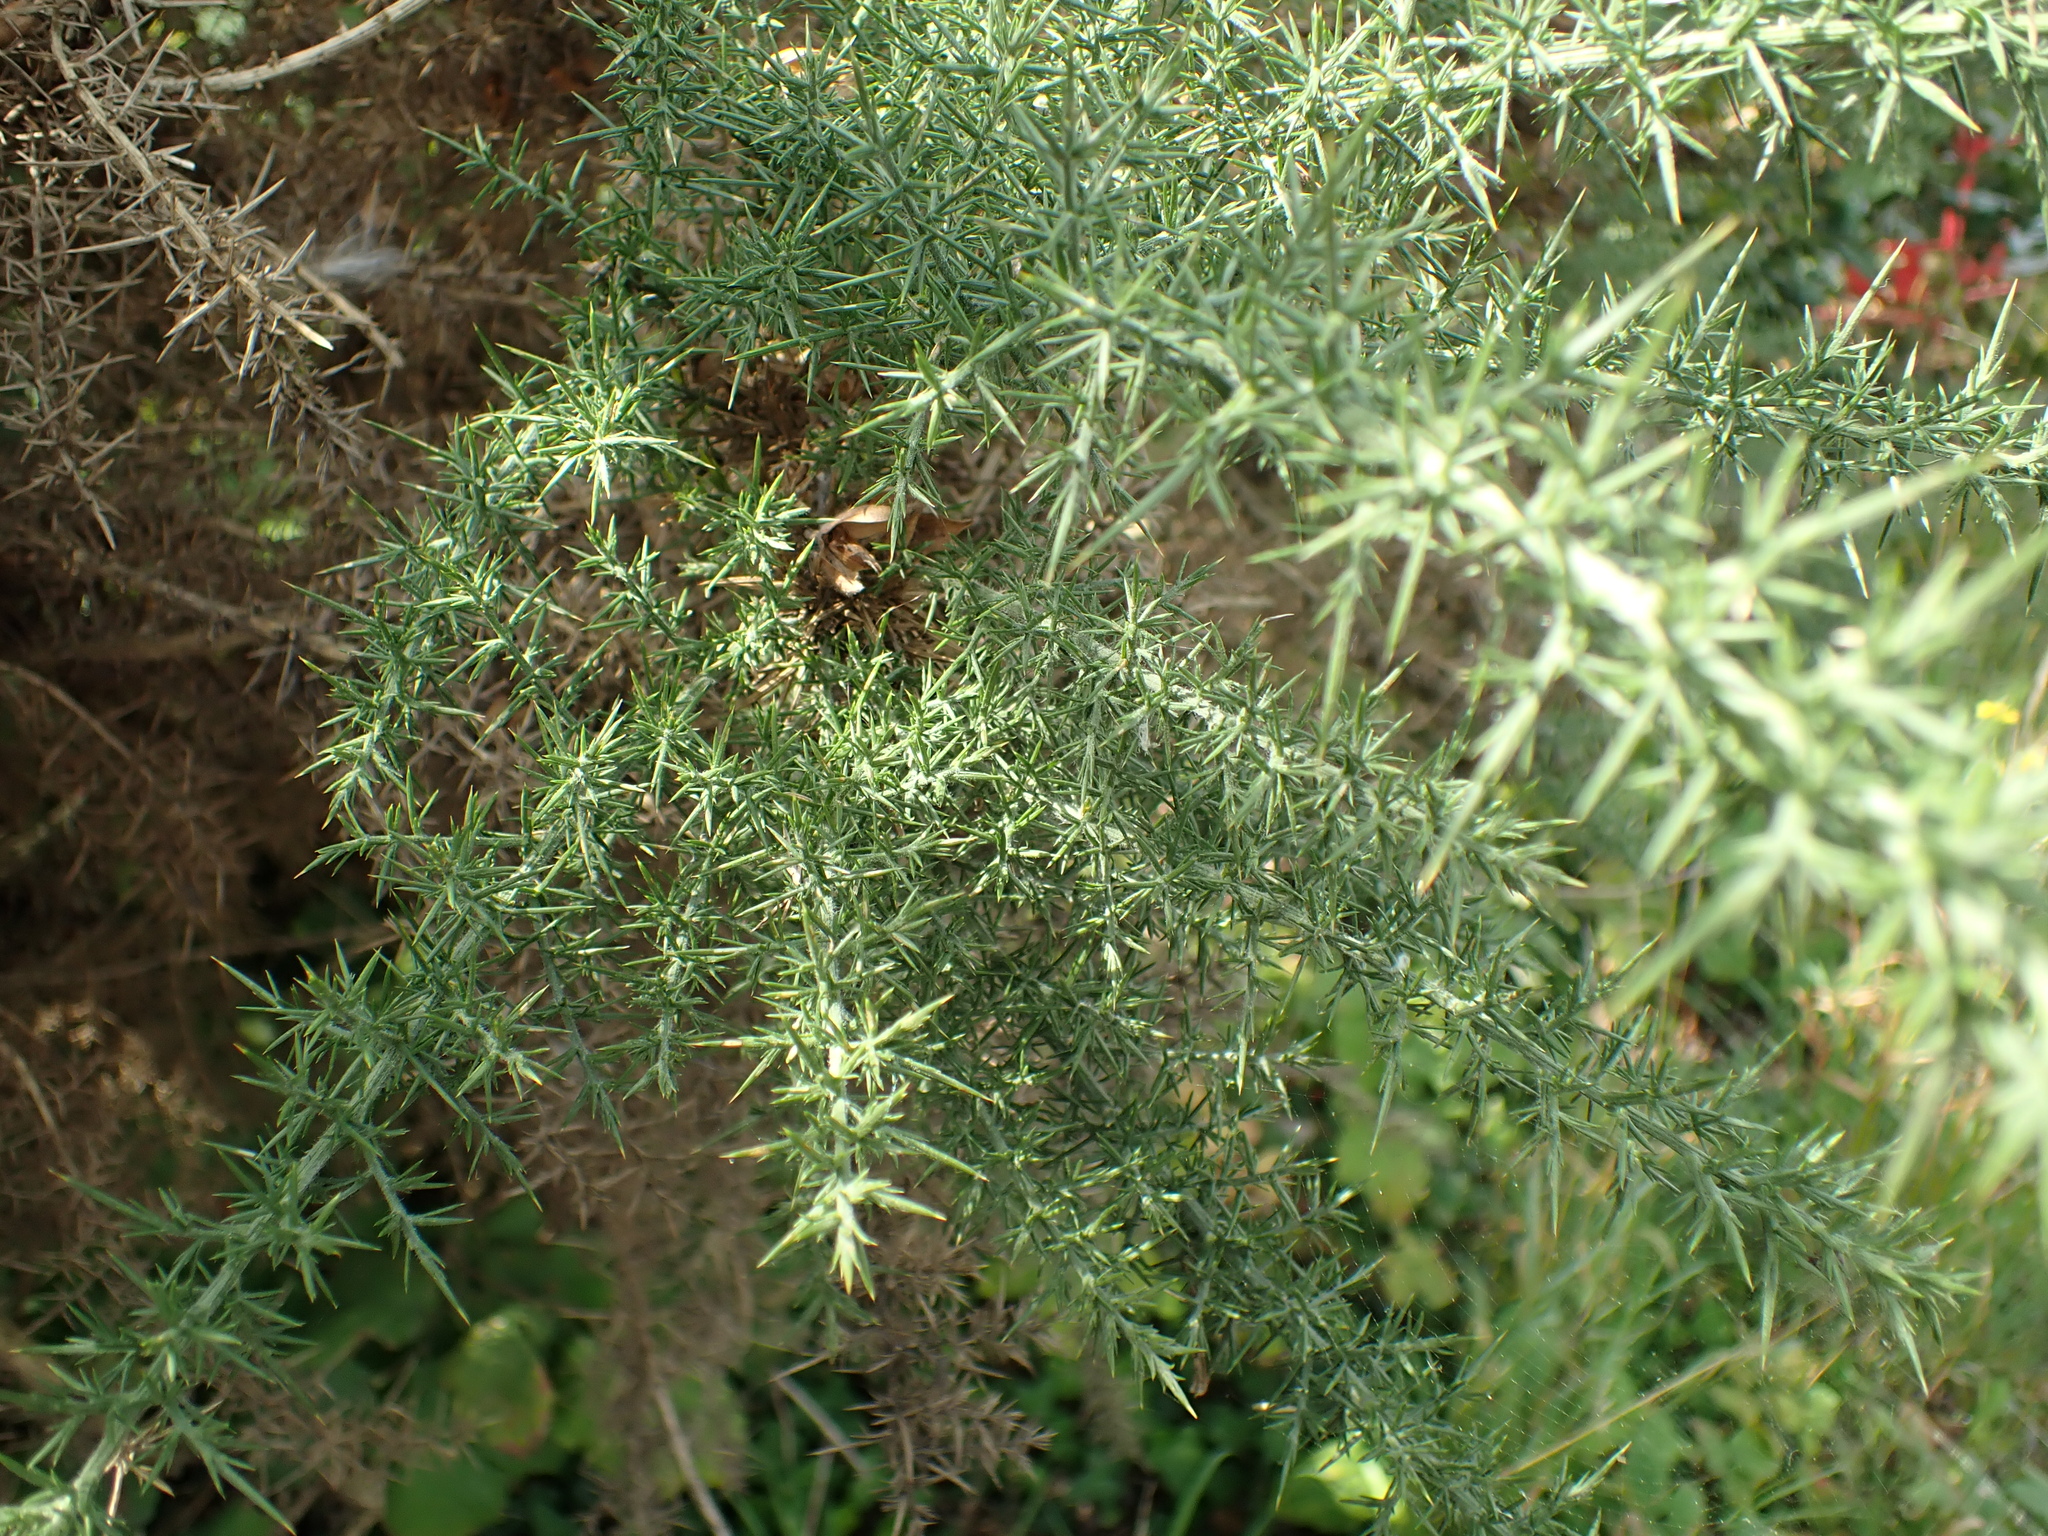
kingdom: Plantae
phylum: Tracheophyta
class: Magnoliopsida
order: Fabales
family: Fabaceae
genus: Ulex
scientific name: Ulex europaeus
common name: Common gorse
